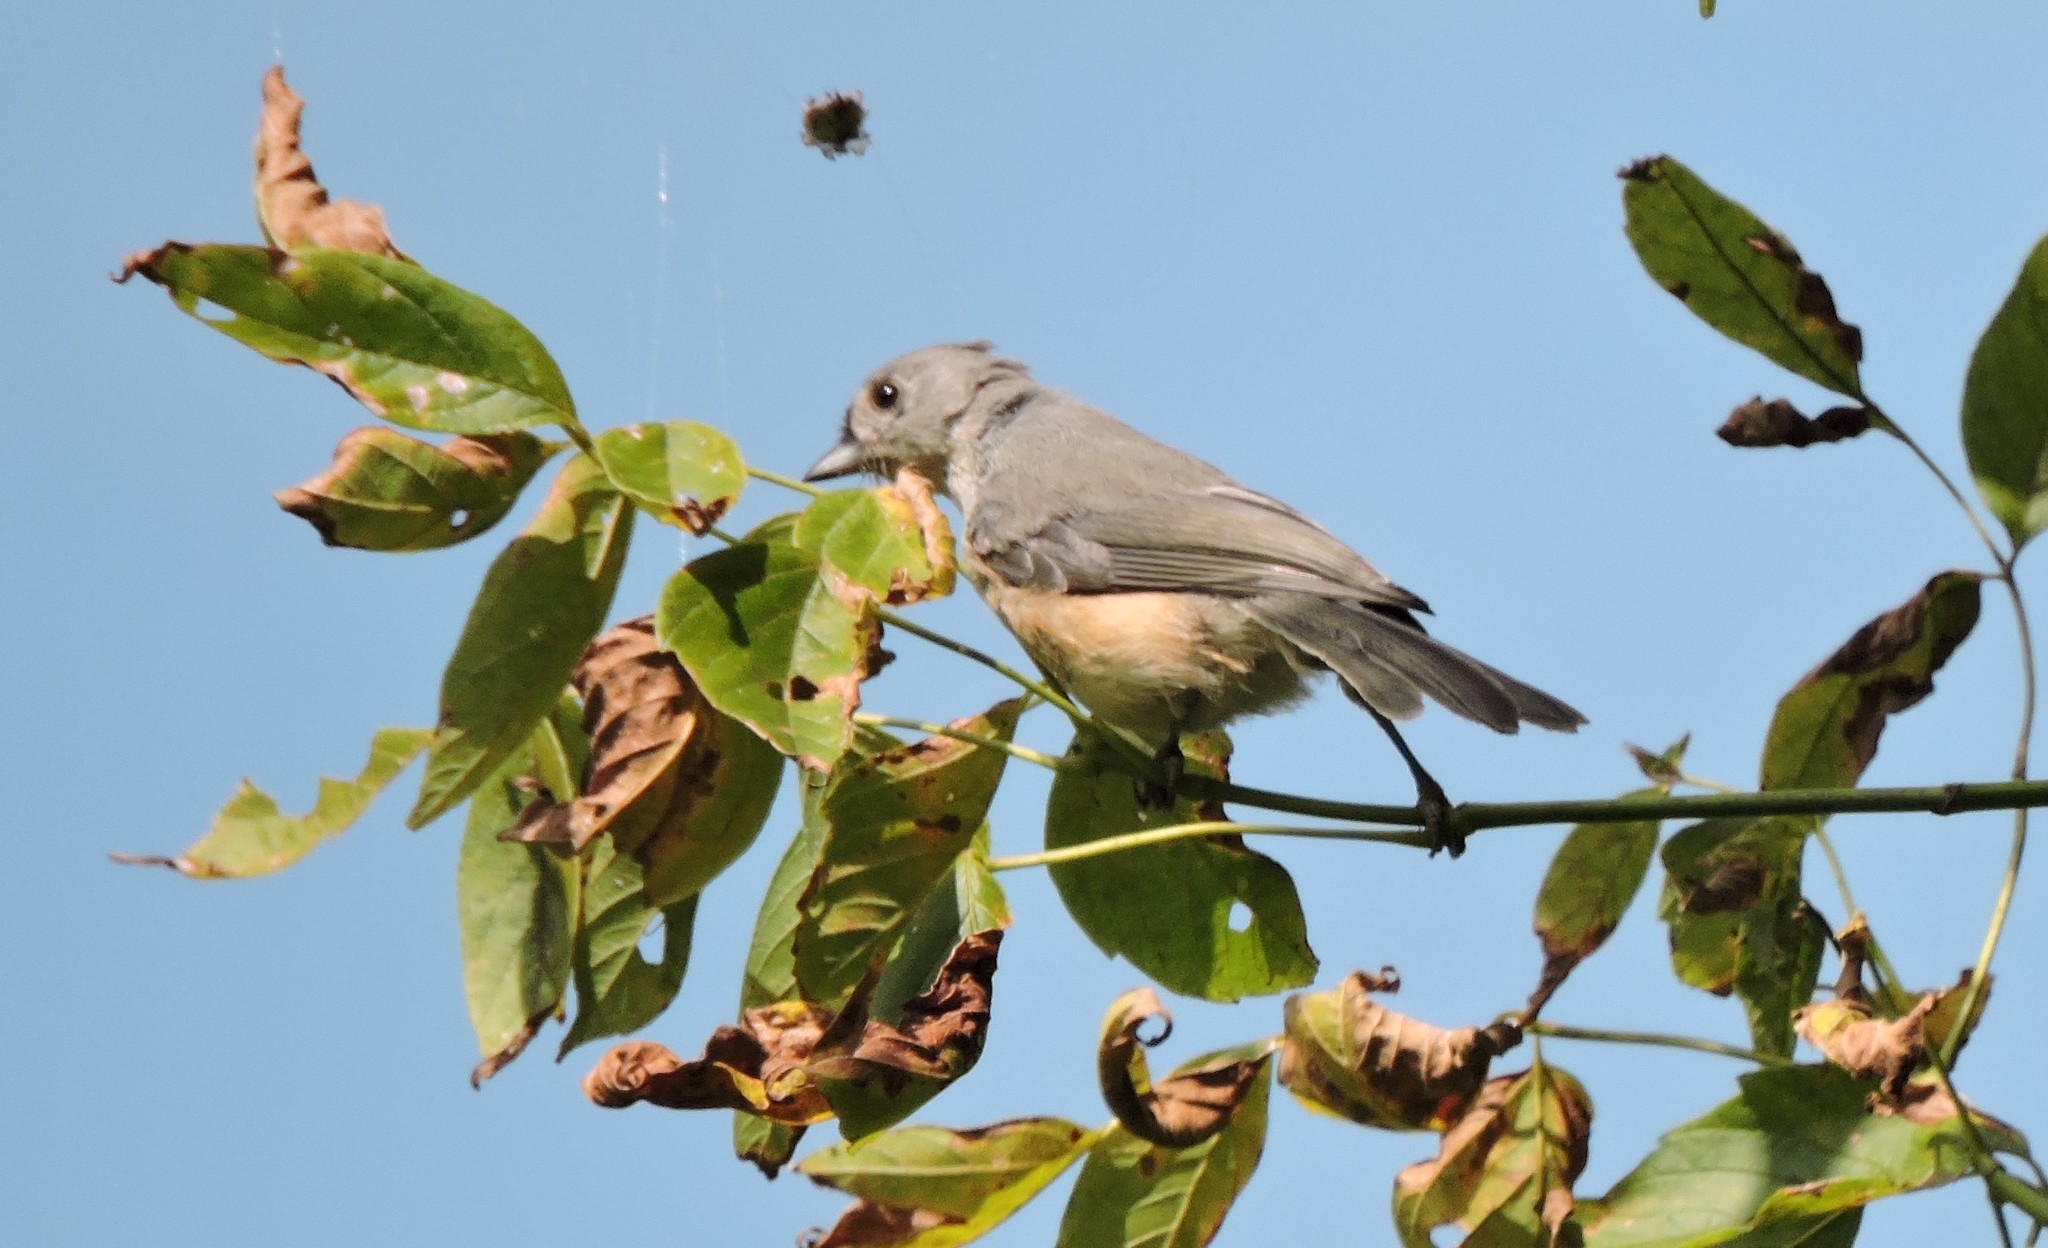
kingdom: Animalia
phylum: Chordata
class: Aves
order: Passeriformes
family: Paridae
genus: Baeolophus
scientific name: Baeolophus bicolor
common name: Tufted titmouse
